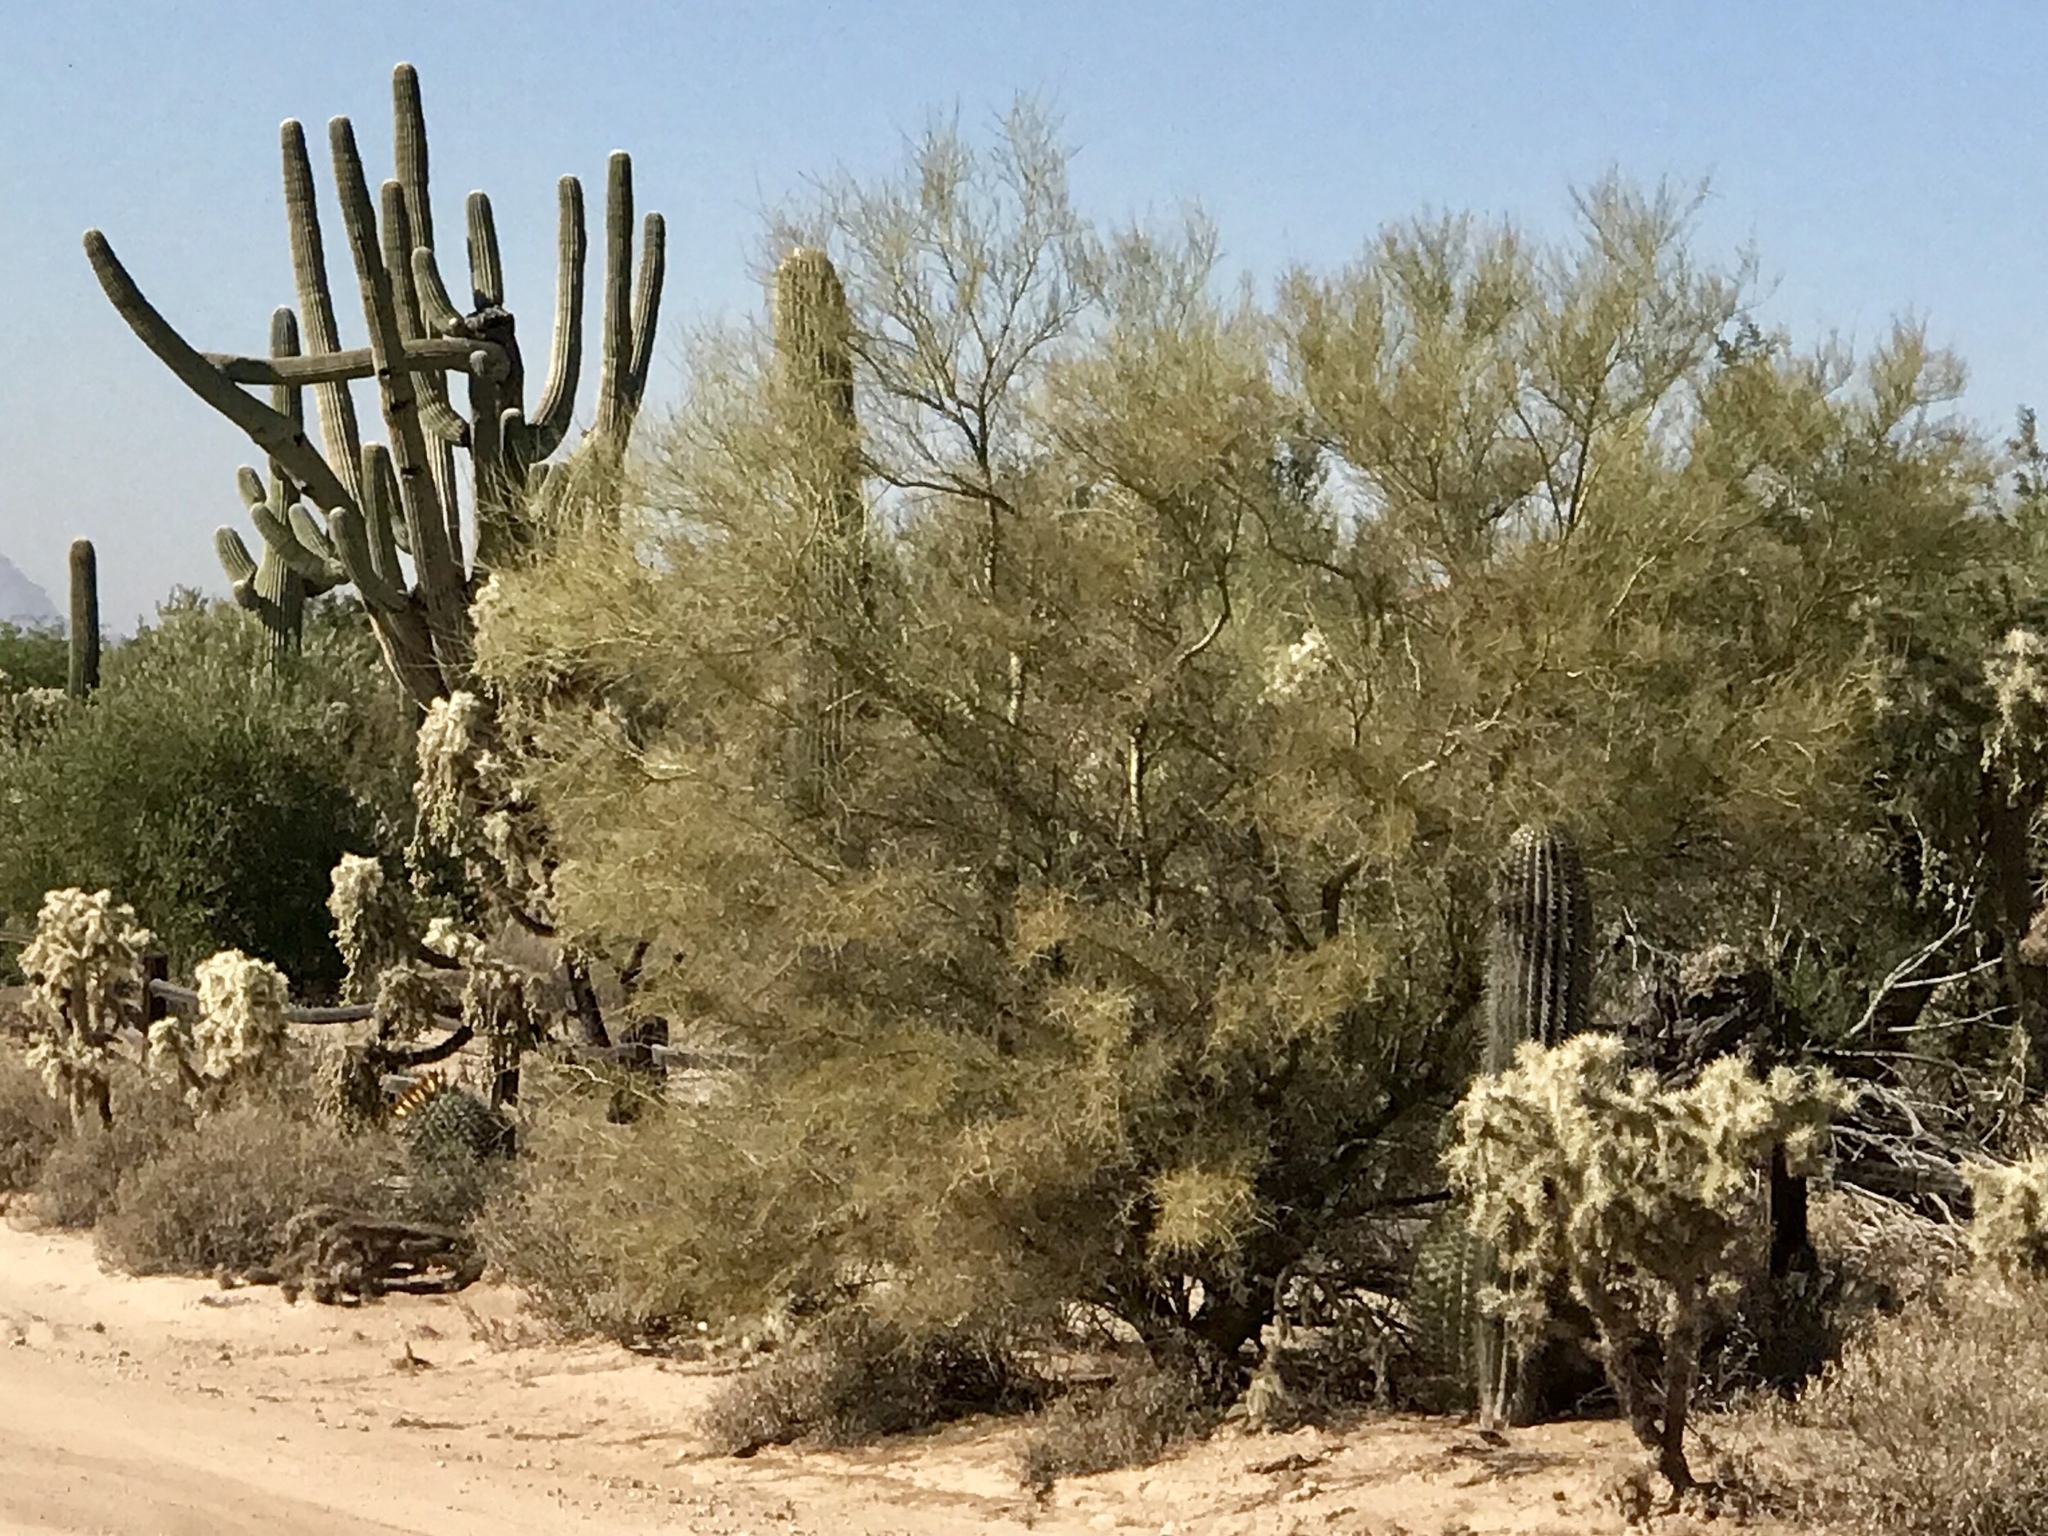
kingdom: Plantae
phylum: Tracheophyta
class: Magnoliopsida
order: Fabales
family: Fabaceae
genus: Parkinsonia
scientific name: Parkinsonia microphylla
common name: Yellow paloverde
